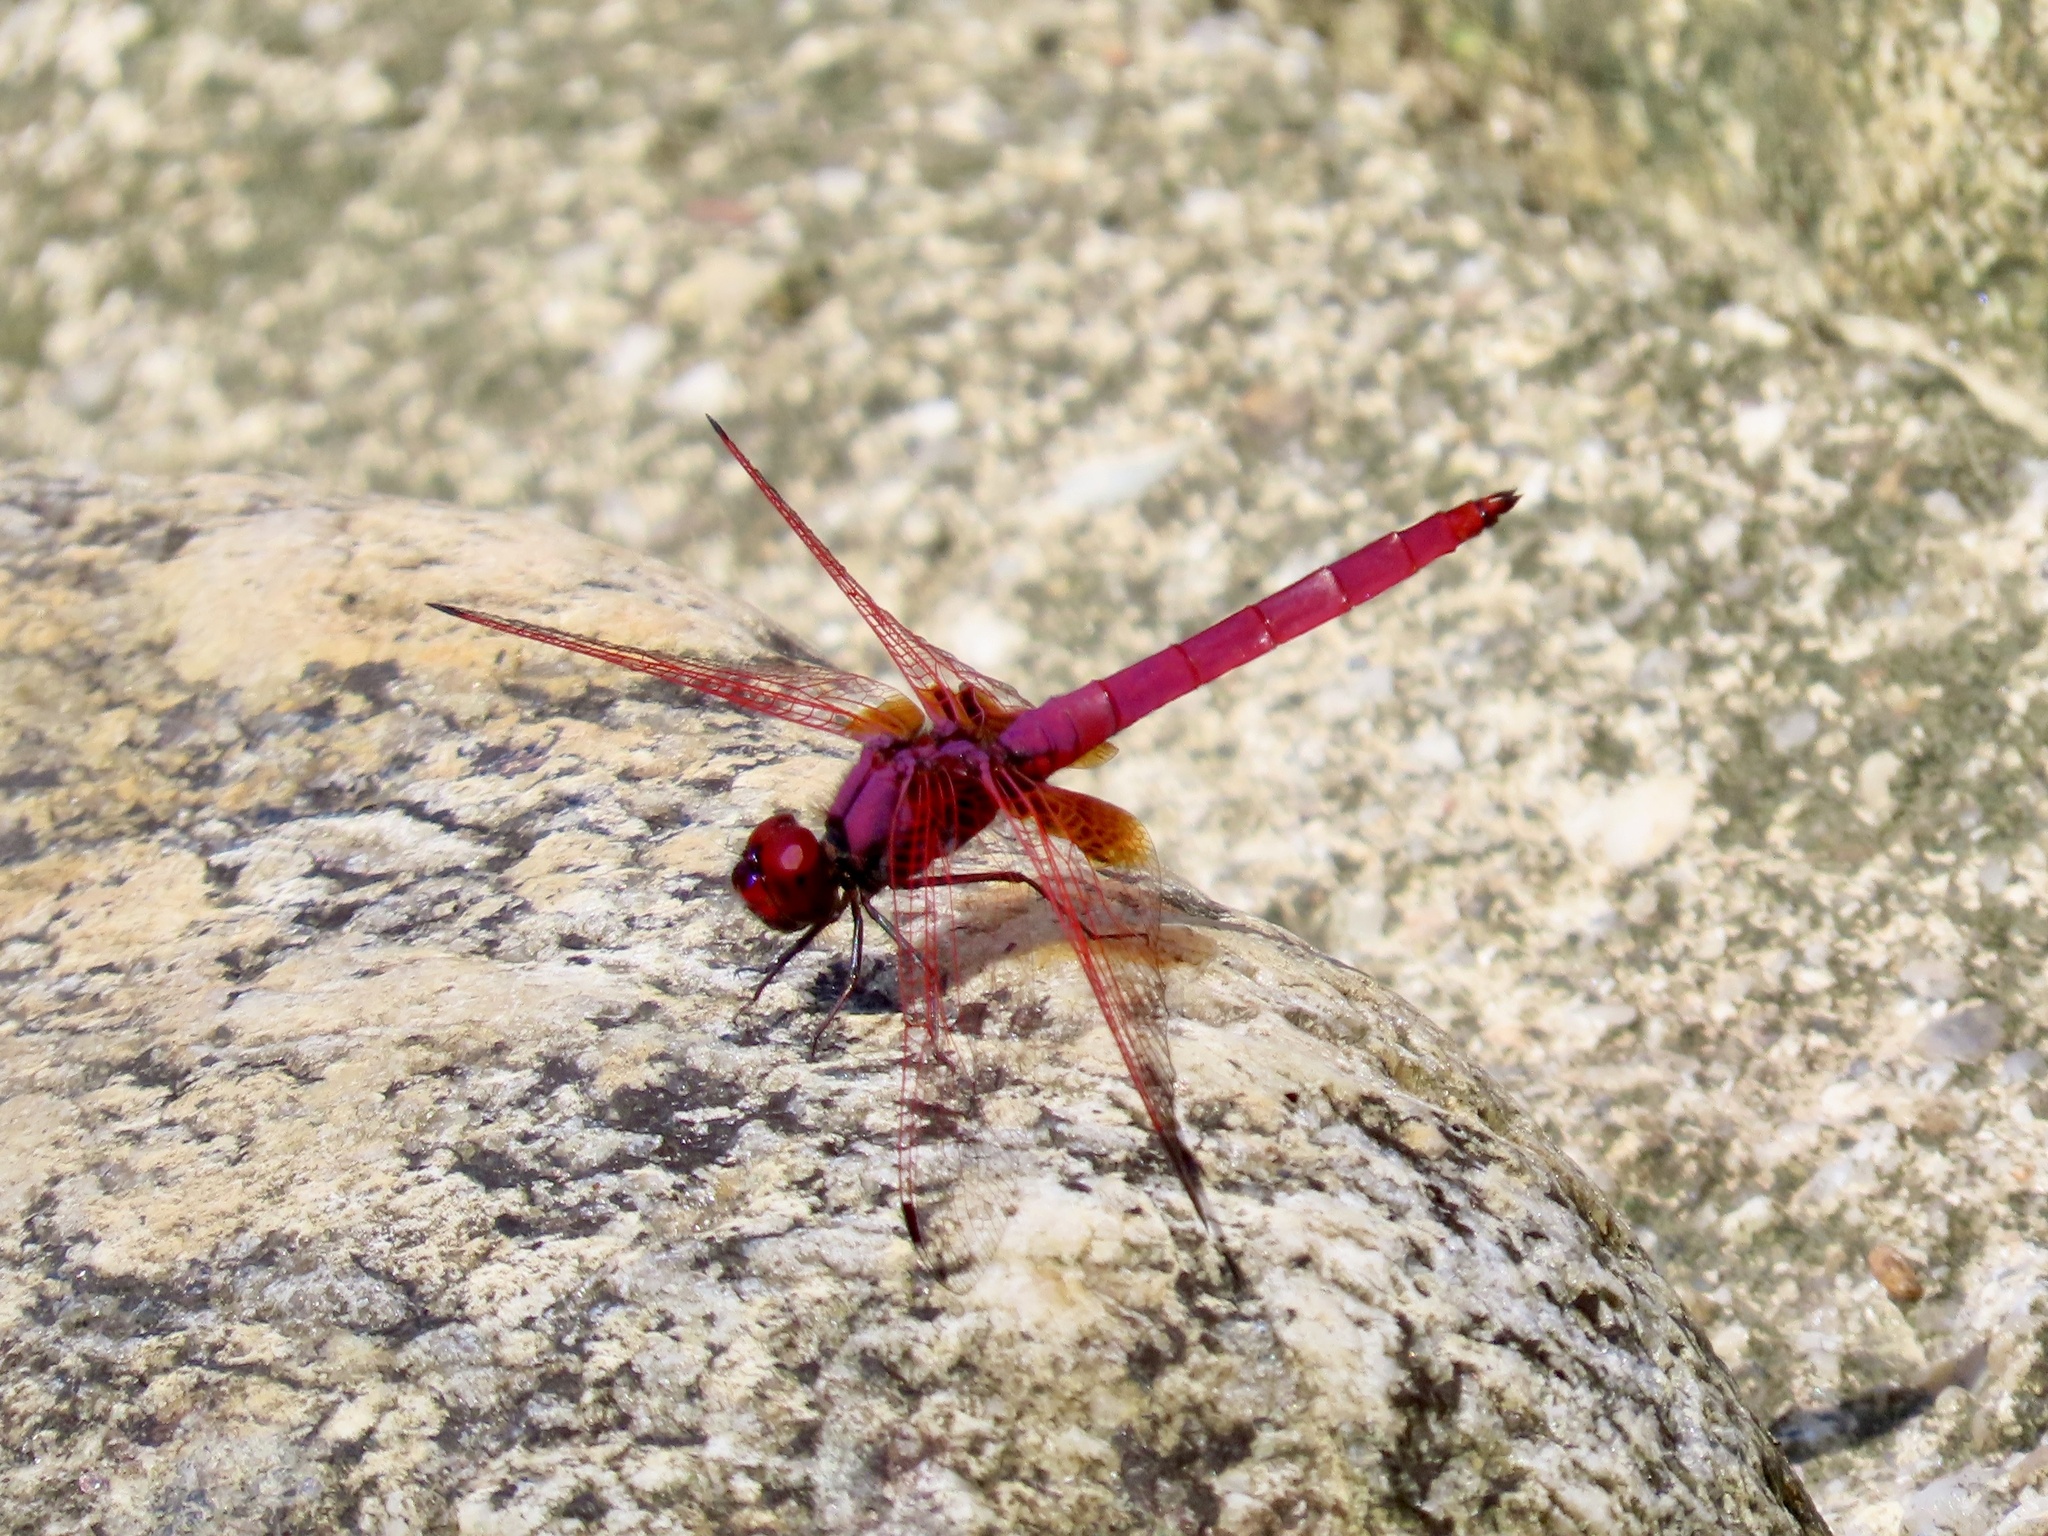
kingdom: Animalia
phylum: Arthropoda
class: Insecta
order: Odonata
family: Libellulidae
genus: Trithemis
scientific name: Trithemis aurora
